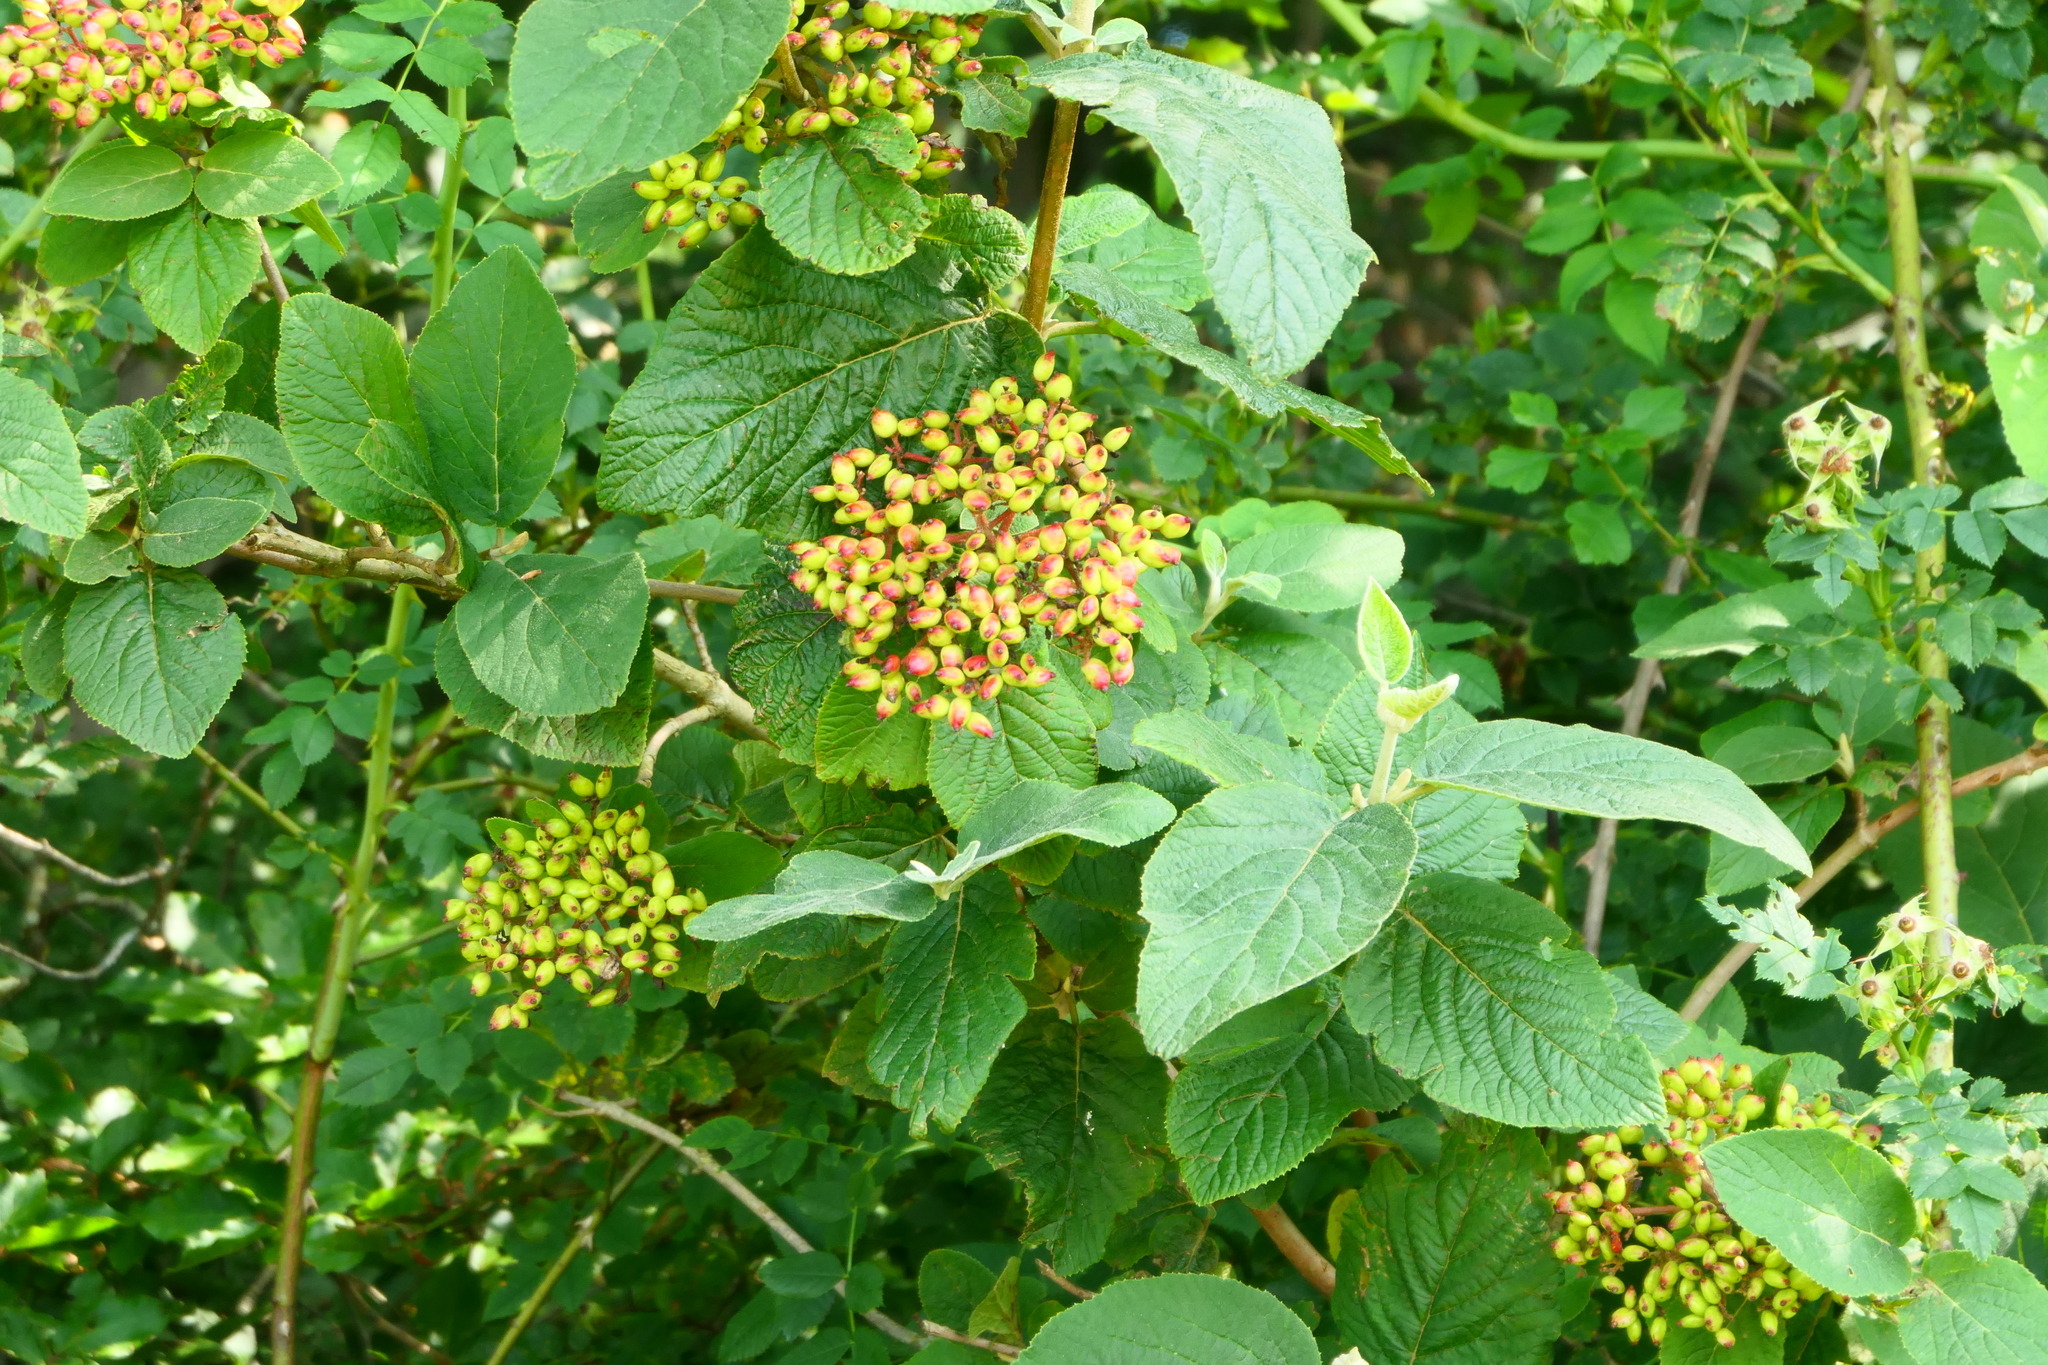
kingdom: Plantae
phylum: Tracheophyta
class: Magnoliopsida
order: Dipsacales
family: Viburnaceae
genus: Viburnum
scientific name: Viburnum lantana
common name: Wayfaring tree
